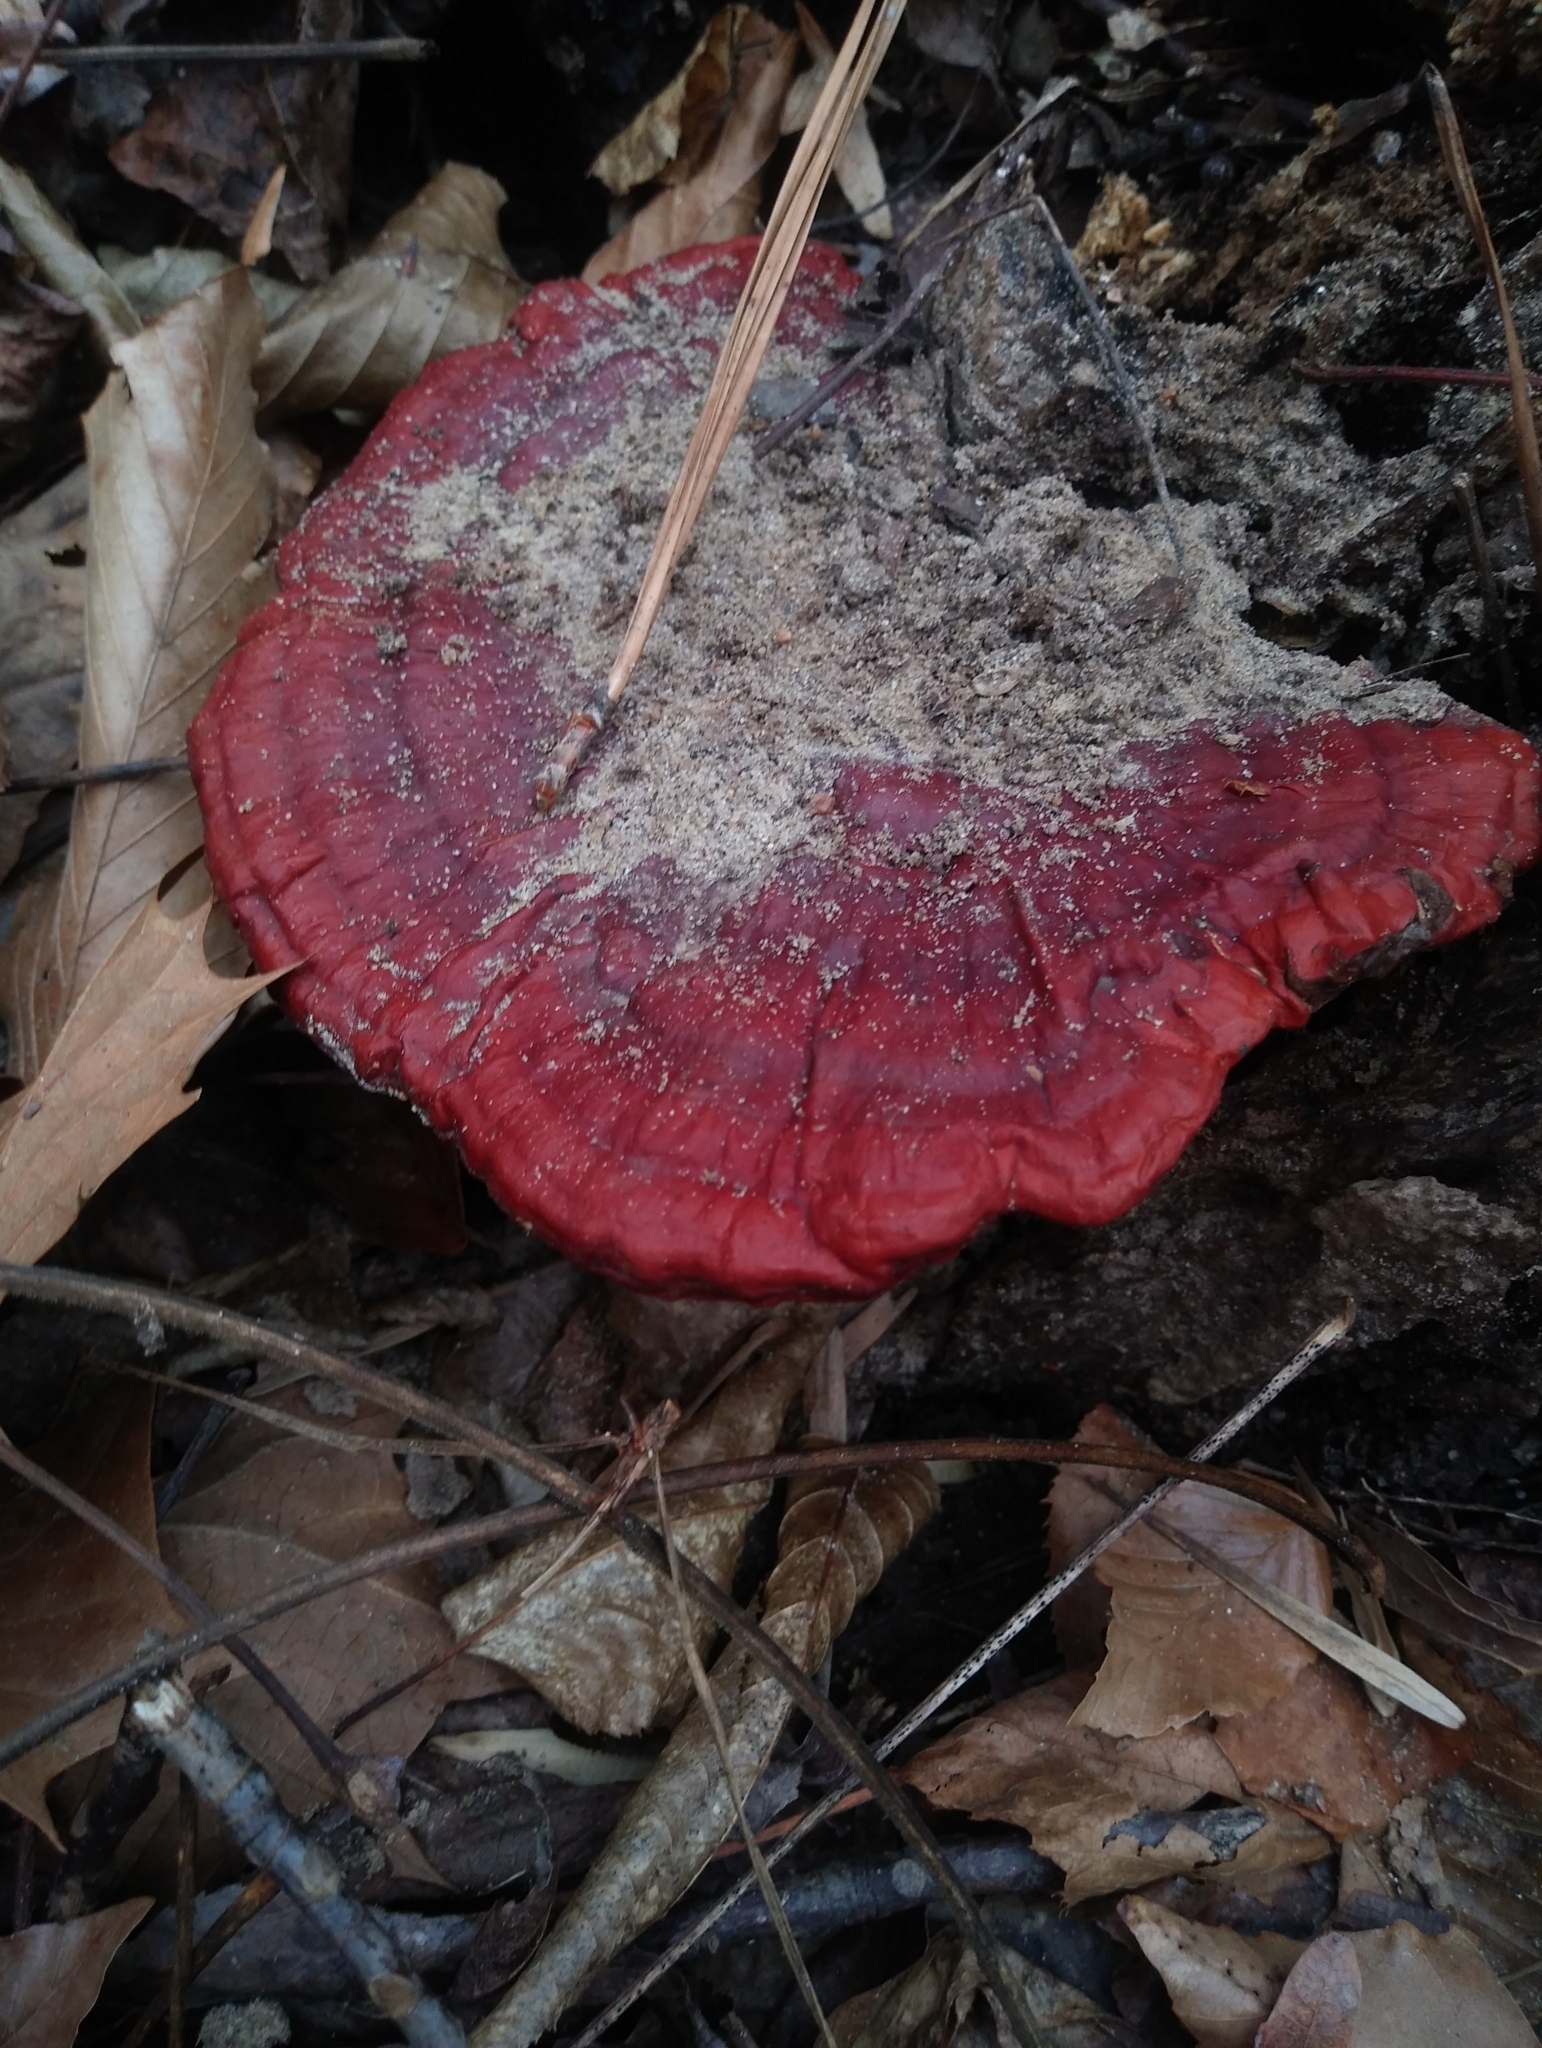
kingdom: Fungi
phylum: Basidiomycota
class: Agaricomycetes
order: Polyporales
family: Polyporaceae
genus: Ganoderma
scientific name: Ganoderma resinaceum
